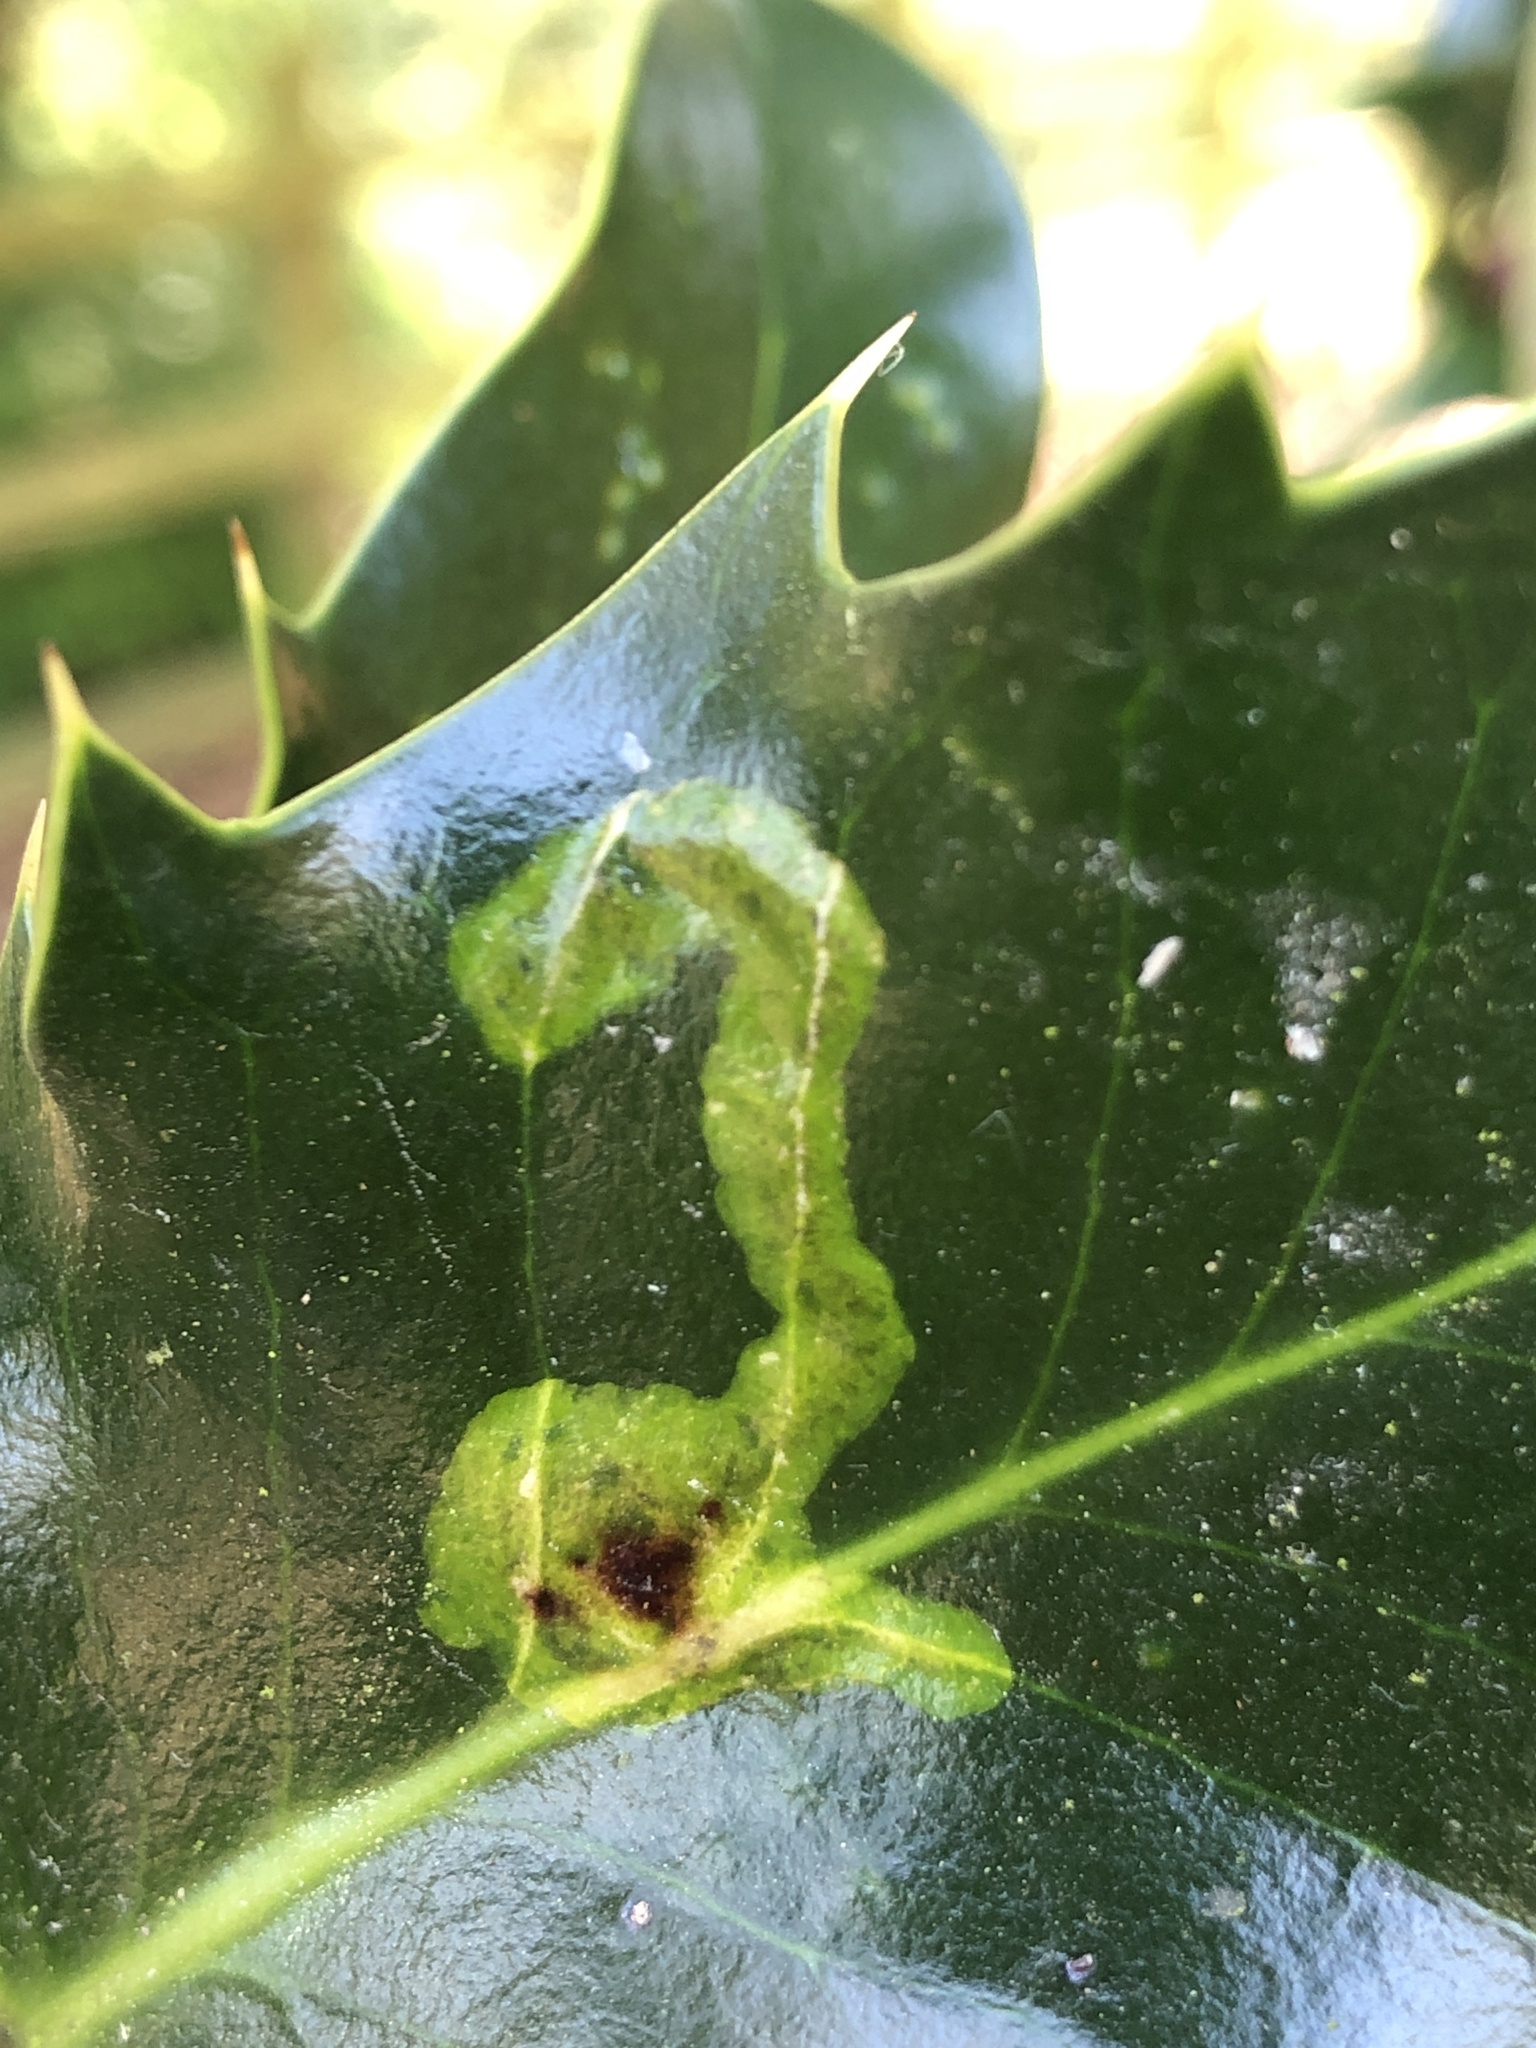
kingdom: Animalia
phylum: Arthropoda
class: Insecta
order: Diptera
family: Agromyzidae
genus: Phytomyza
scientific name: Phytomyza ilicis
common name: Holly leafminer
